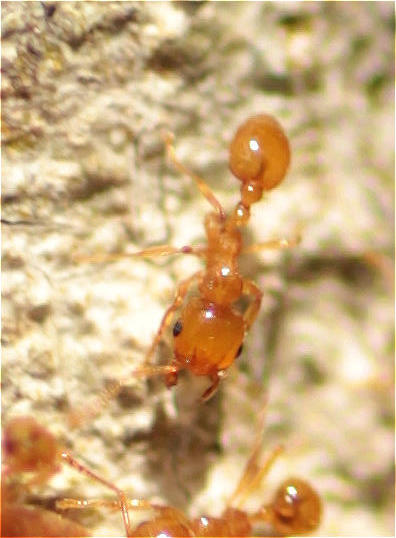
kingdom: Animalia
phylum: Arthropoda
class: Insecta
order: Hymenoptera
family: Formicidae
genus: Allomerus
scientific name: Allomerus
